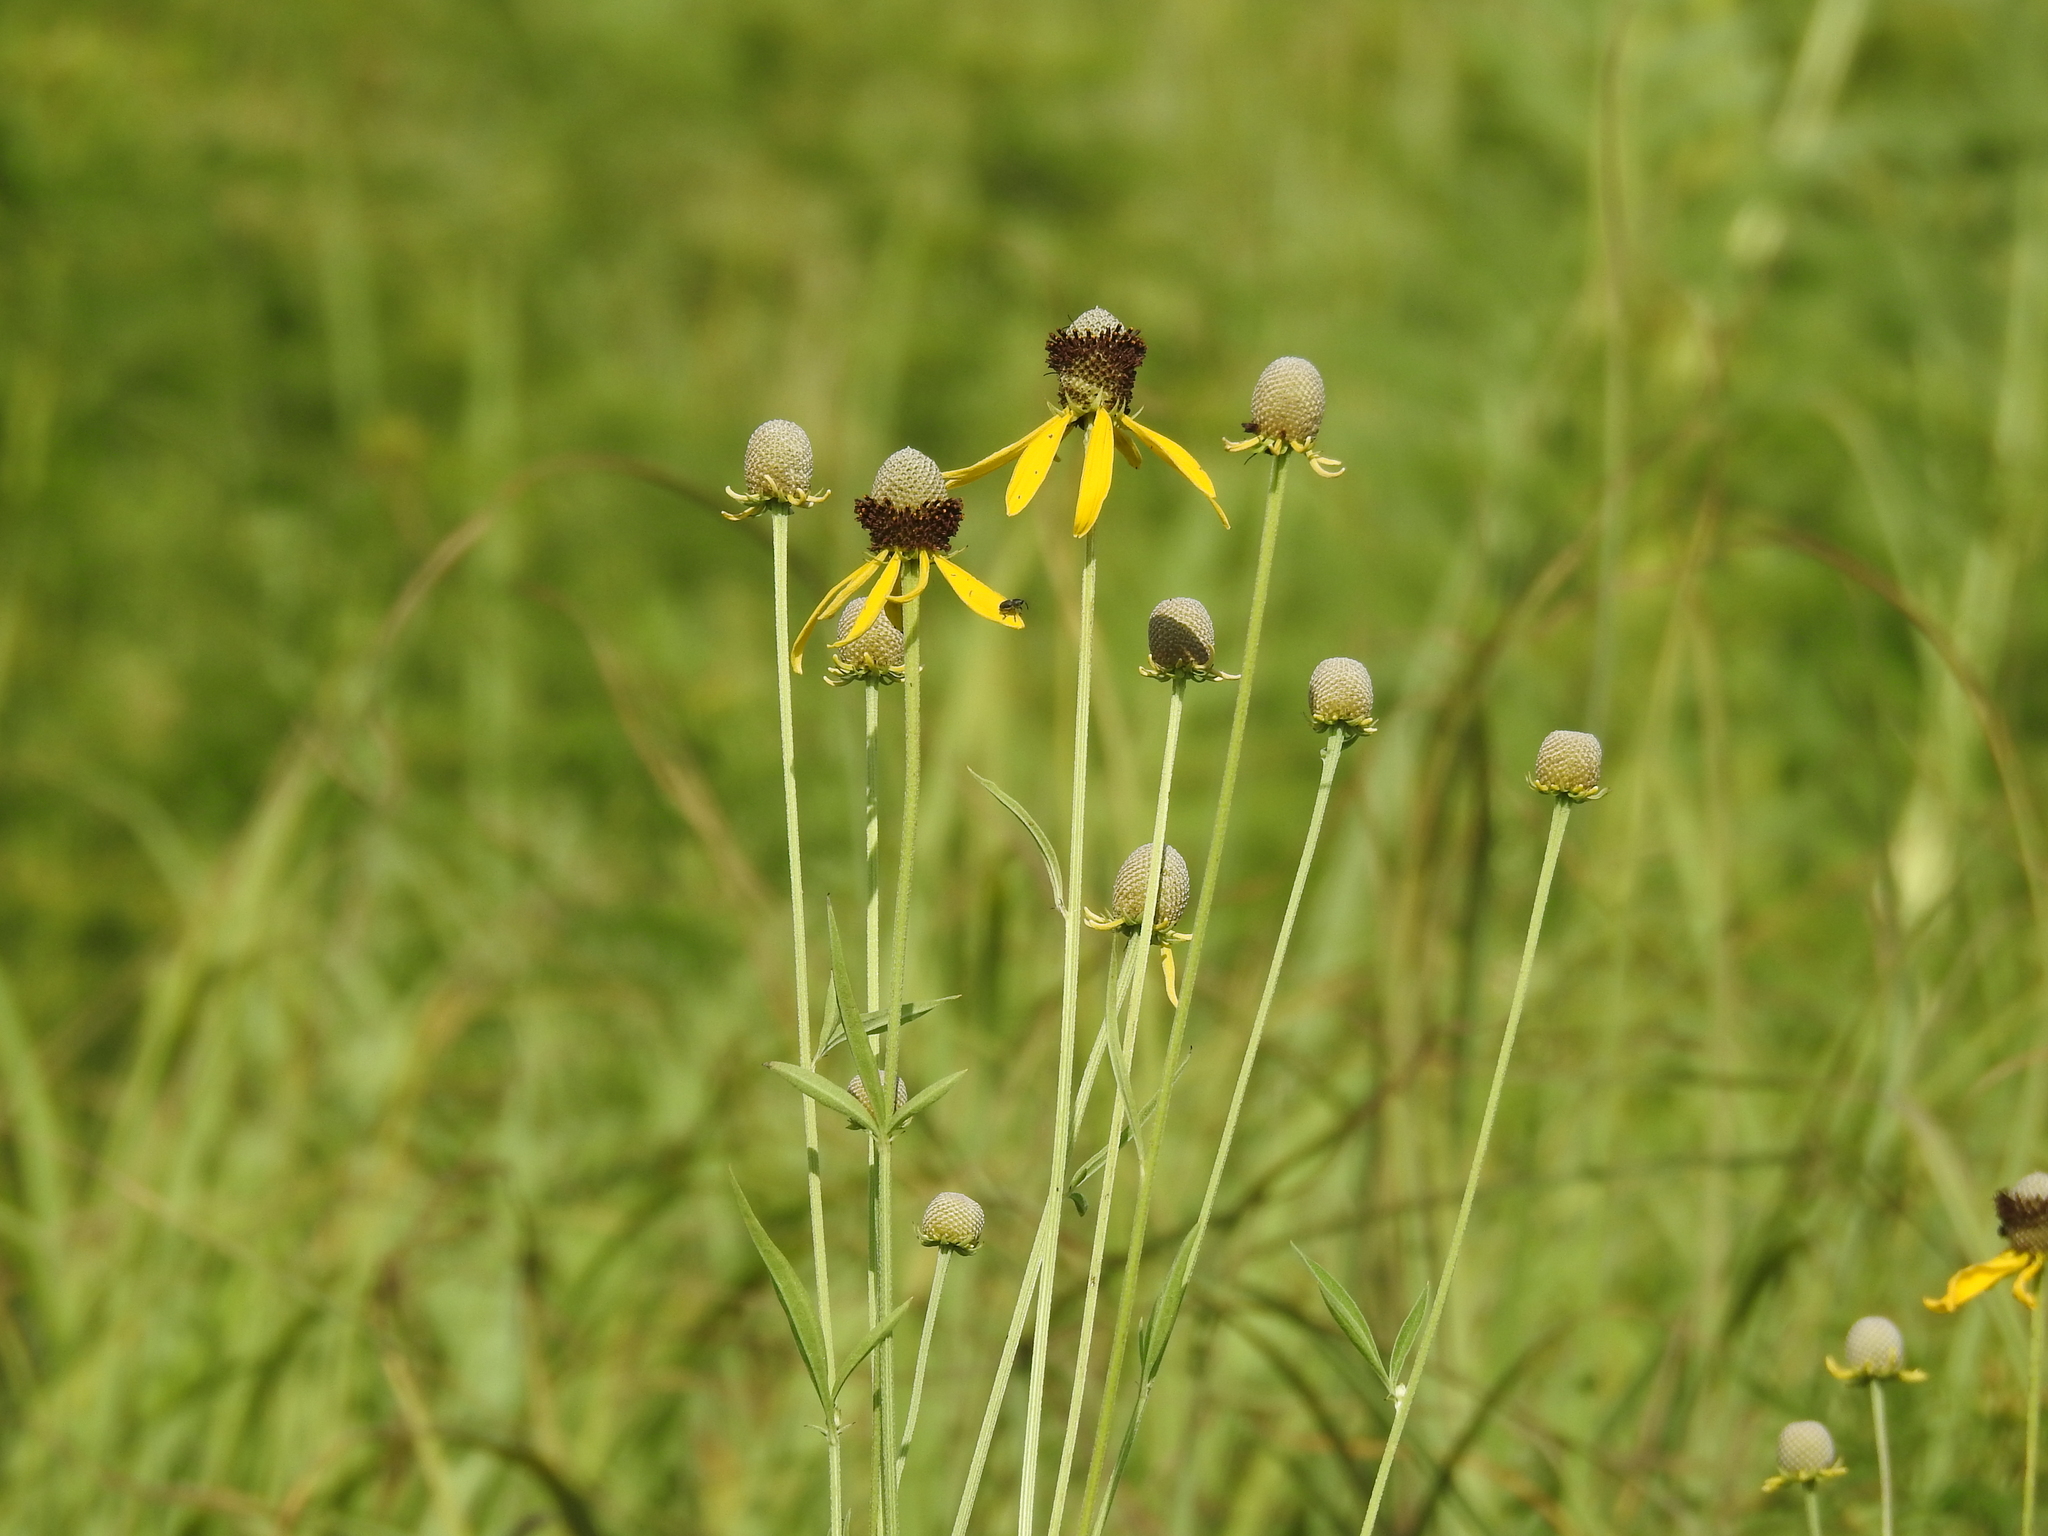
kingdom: Plantae
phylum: Tracheophyta
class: Magnoliopsida
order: Asterales
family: Asteraceae
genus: Ratibida
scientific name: Ratibida pinnata
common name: Drooping prairie-coneflower
